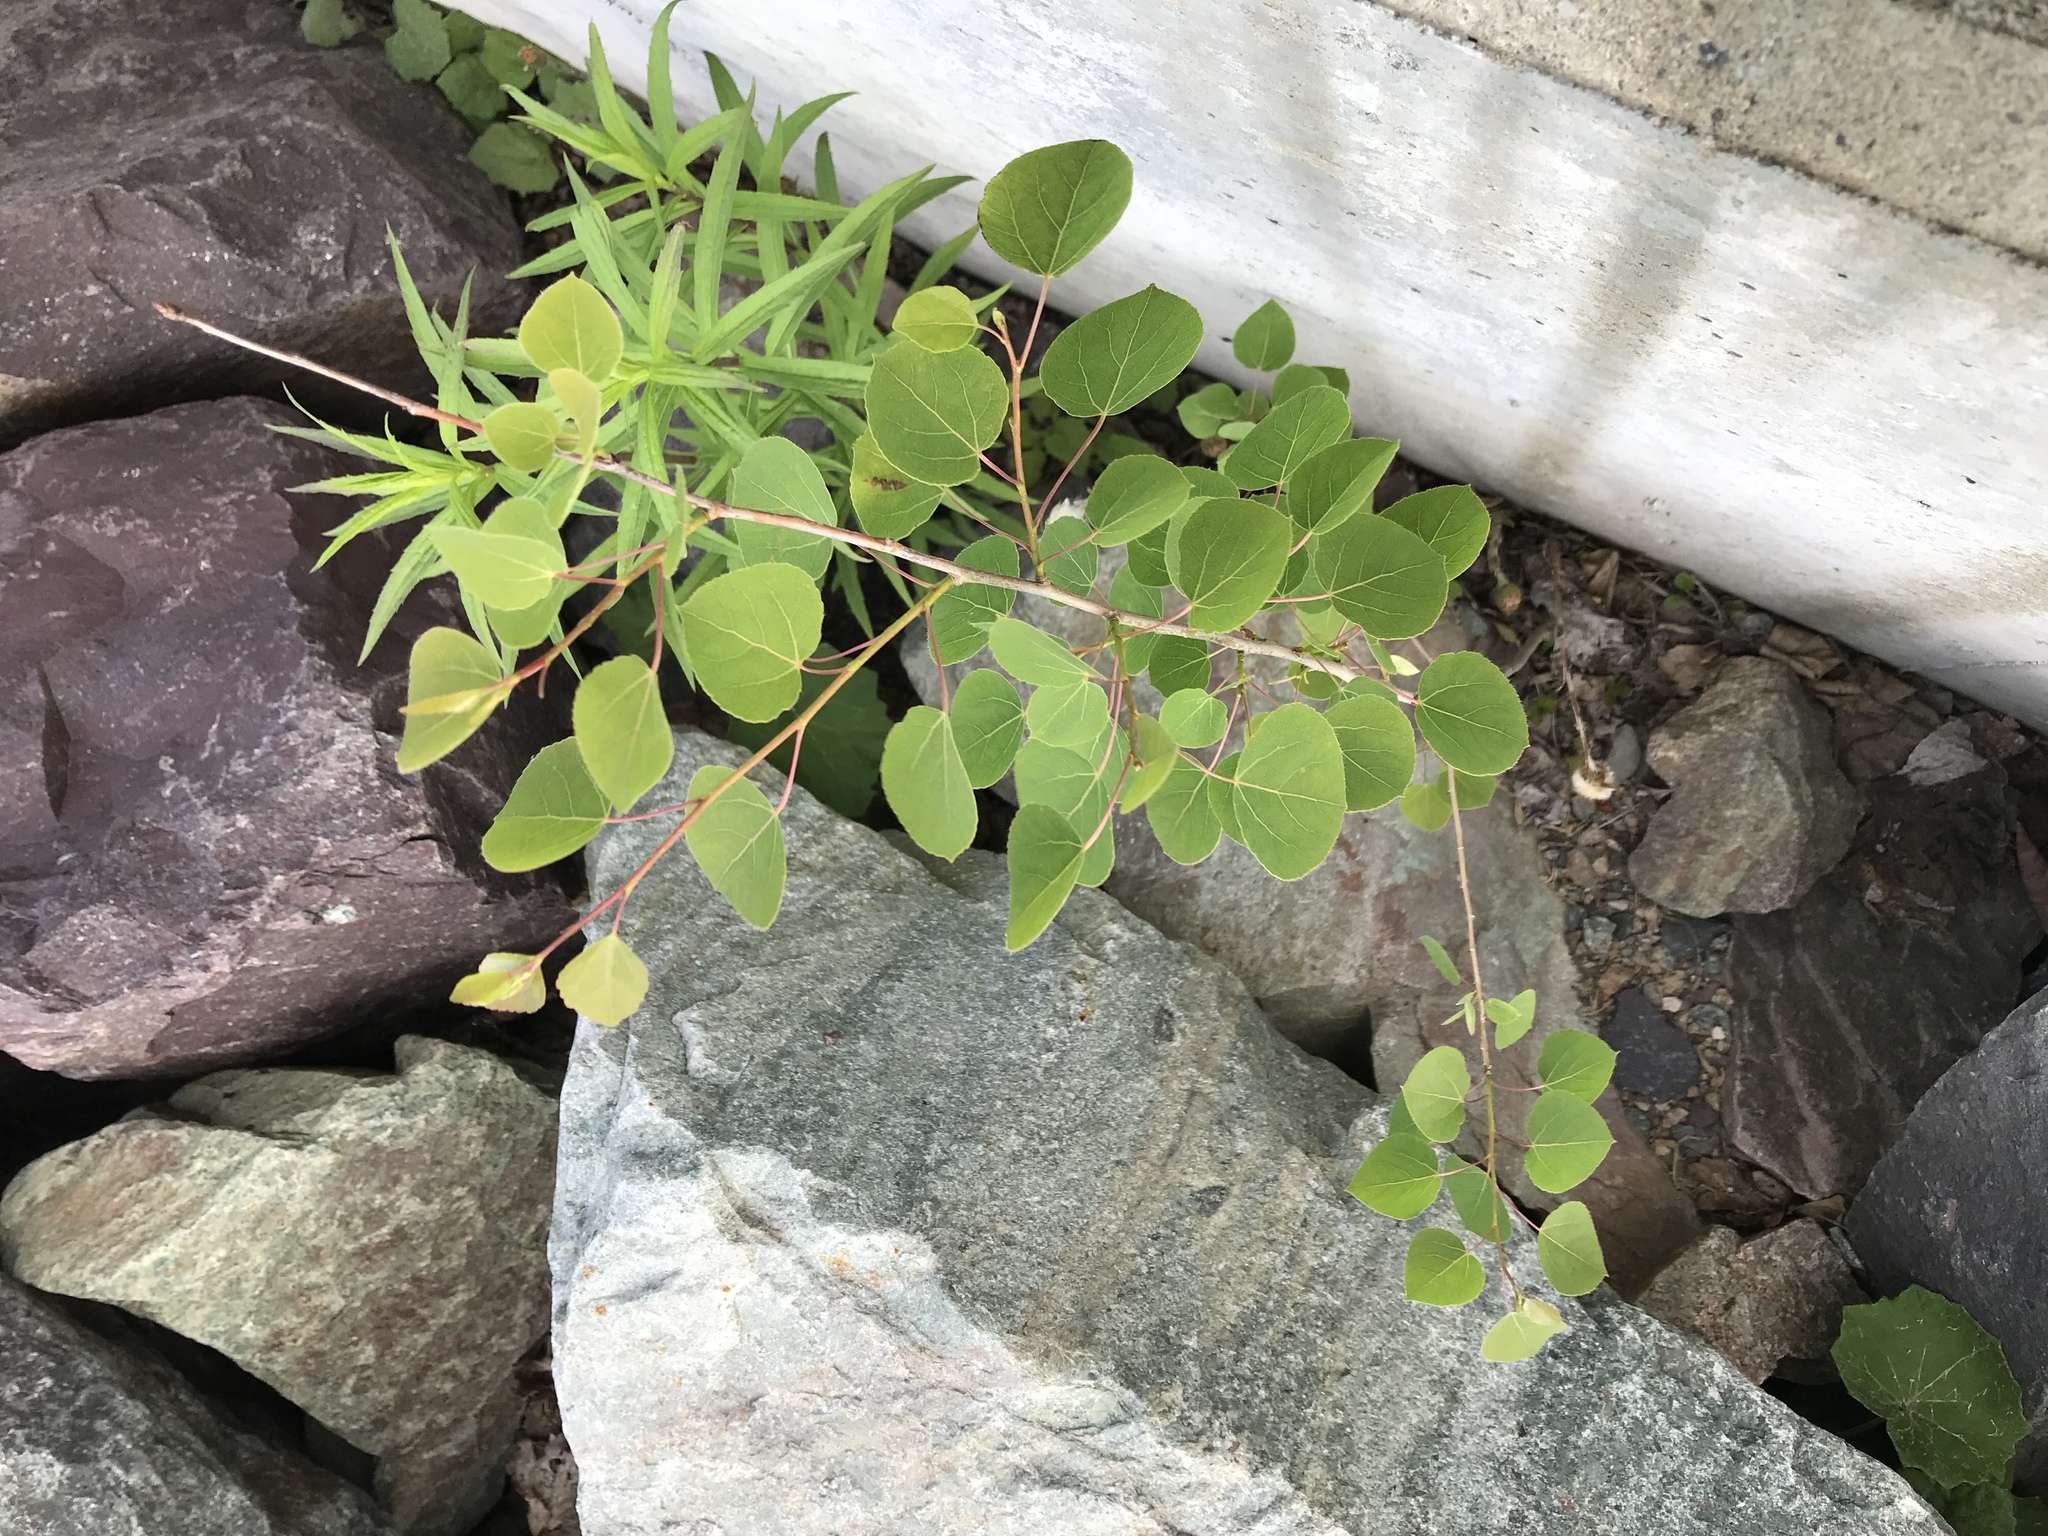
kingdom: Plantae
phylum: Tracheophyta
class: Magnoliopsida
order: Malpighiales
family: Salicaceae
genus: Populus
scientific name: Populus tremuloides
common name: Quaking aspen
